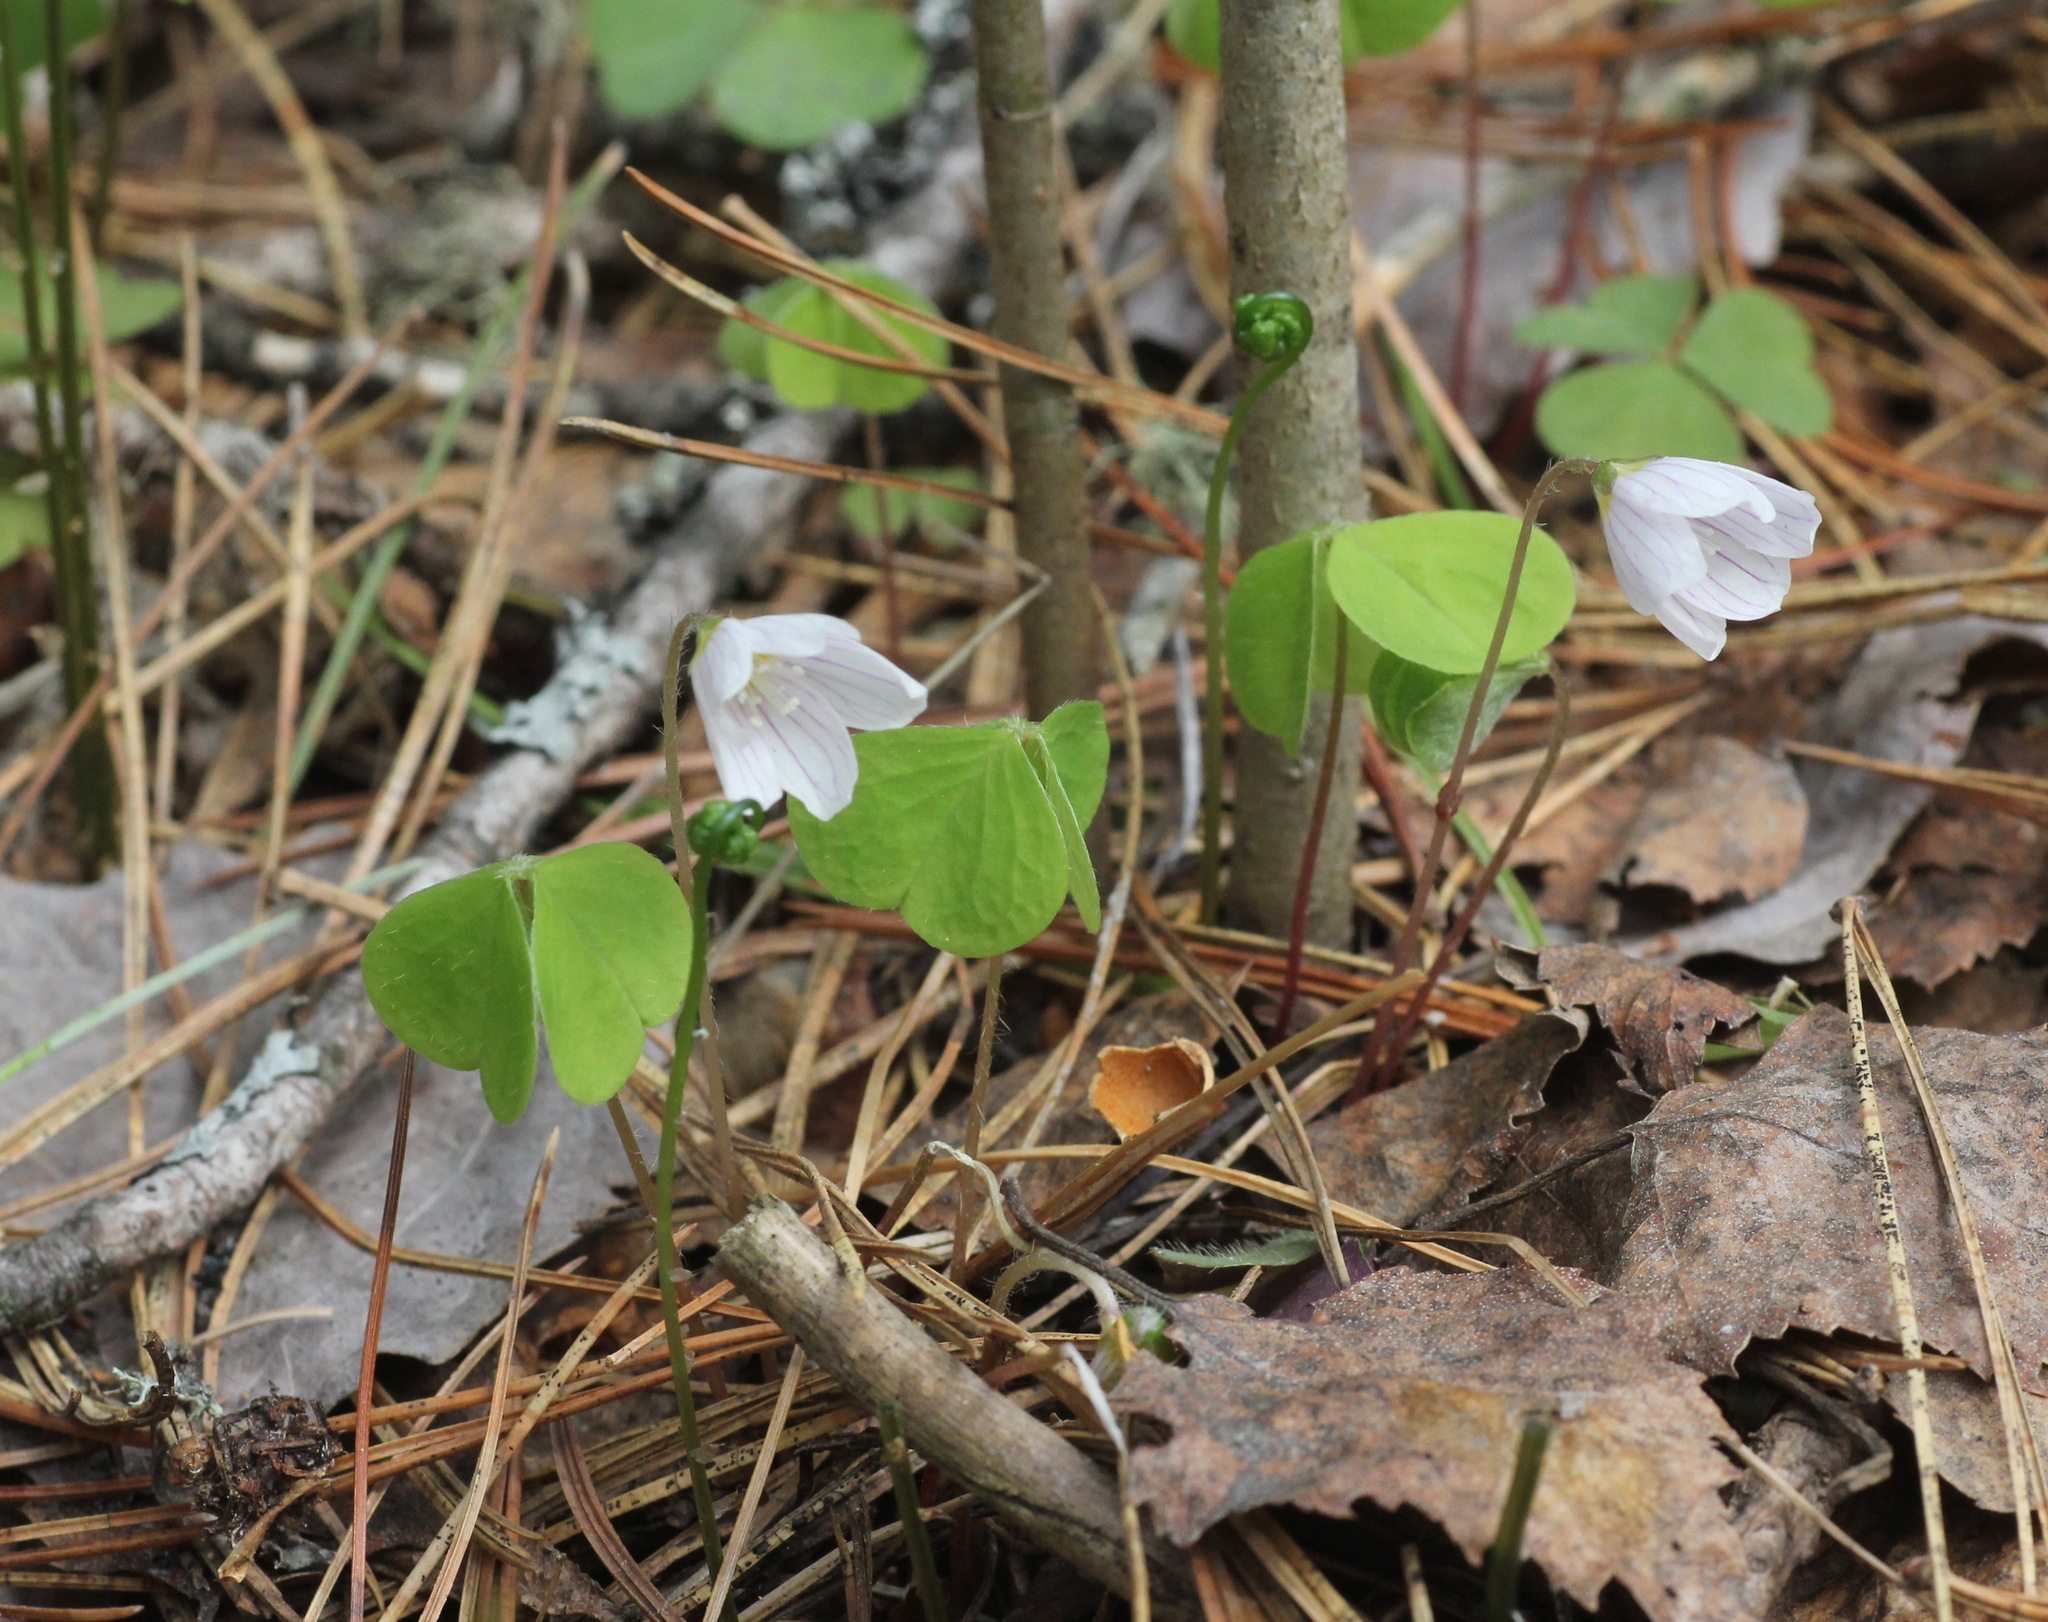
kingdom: Plantae
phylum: Tracheophyta
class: Magnoliopsida
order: Oxalidales
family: Oxalidaceae
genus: Oxalis
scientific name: Oxalis acetosella
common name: Wood-sorrel
